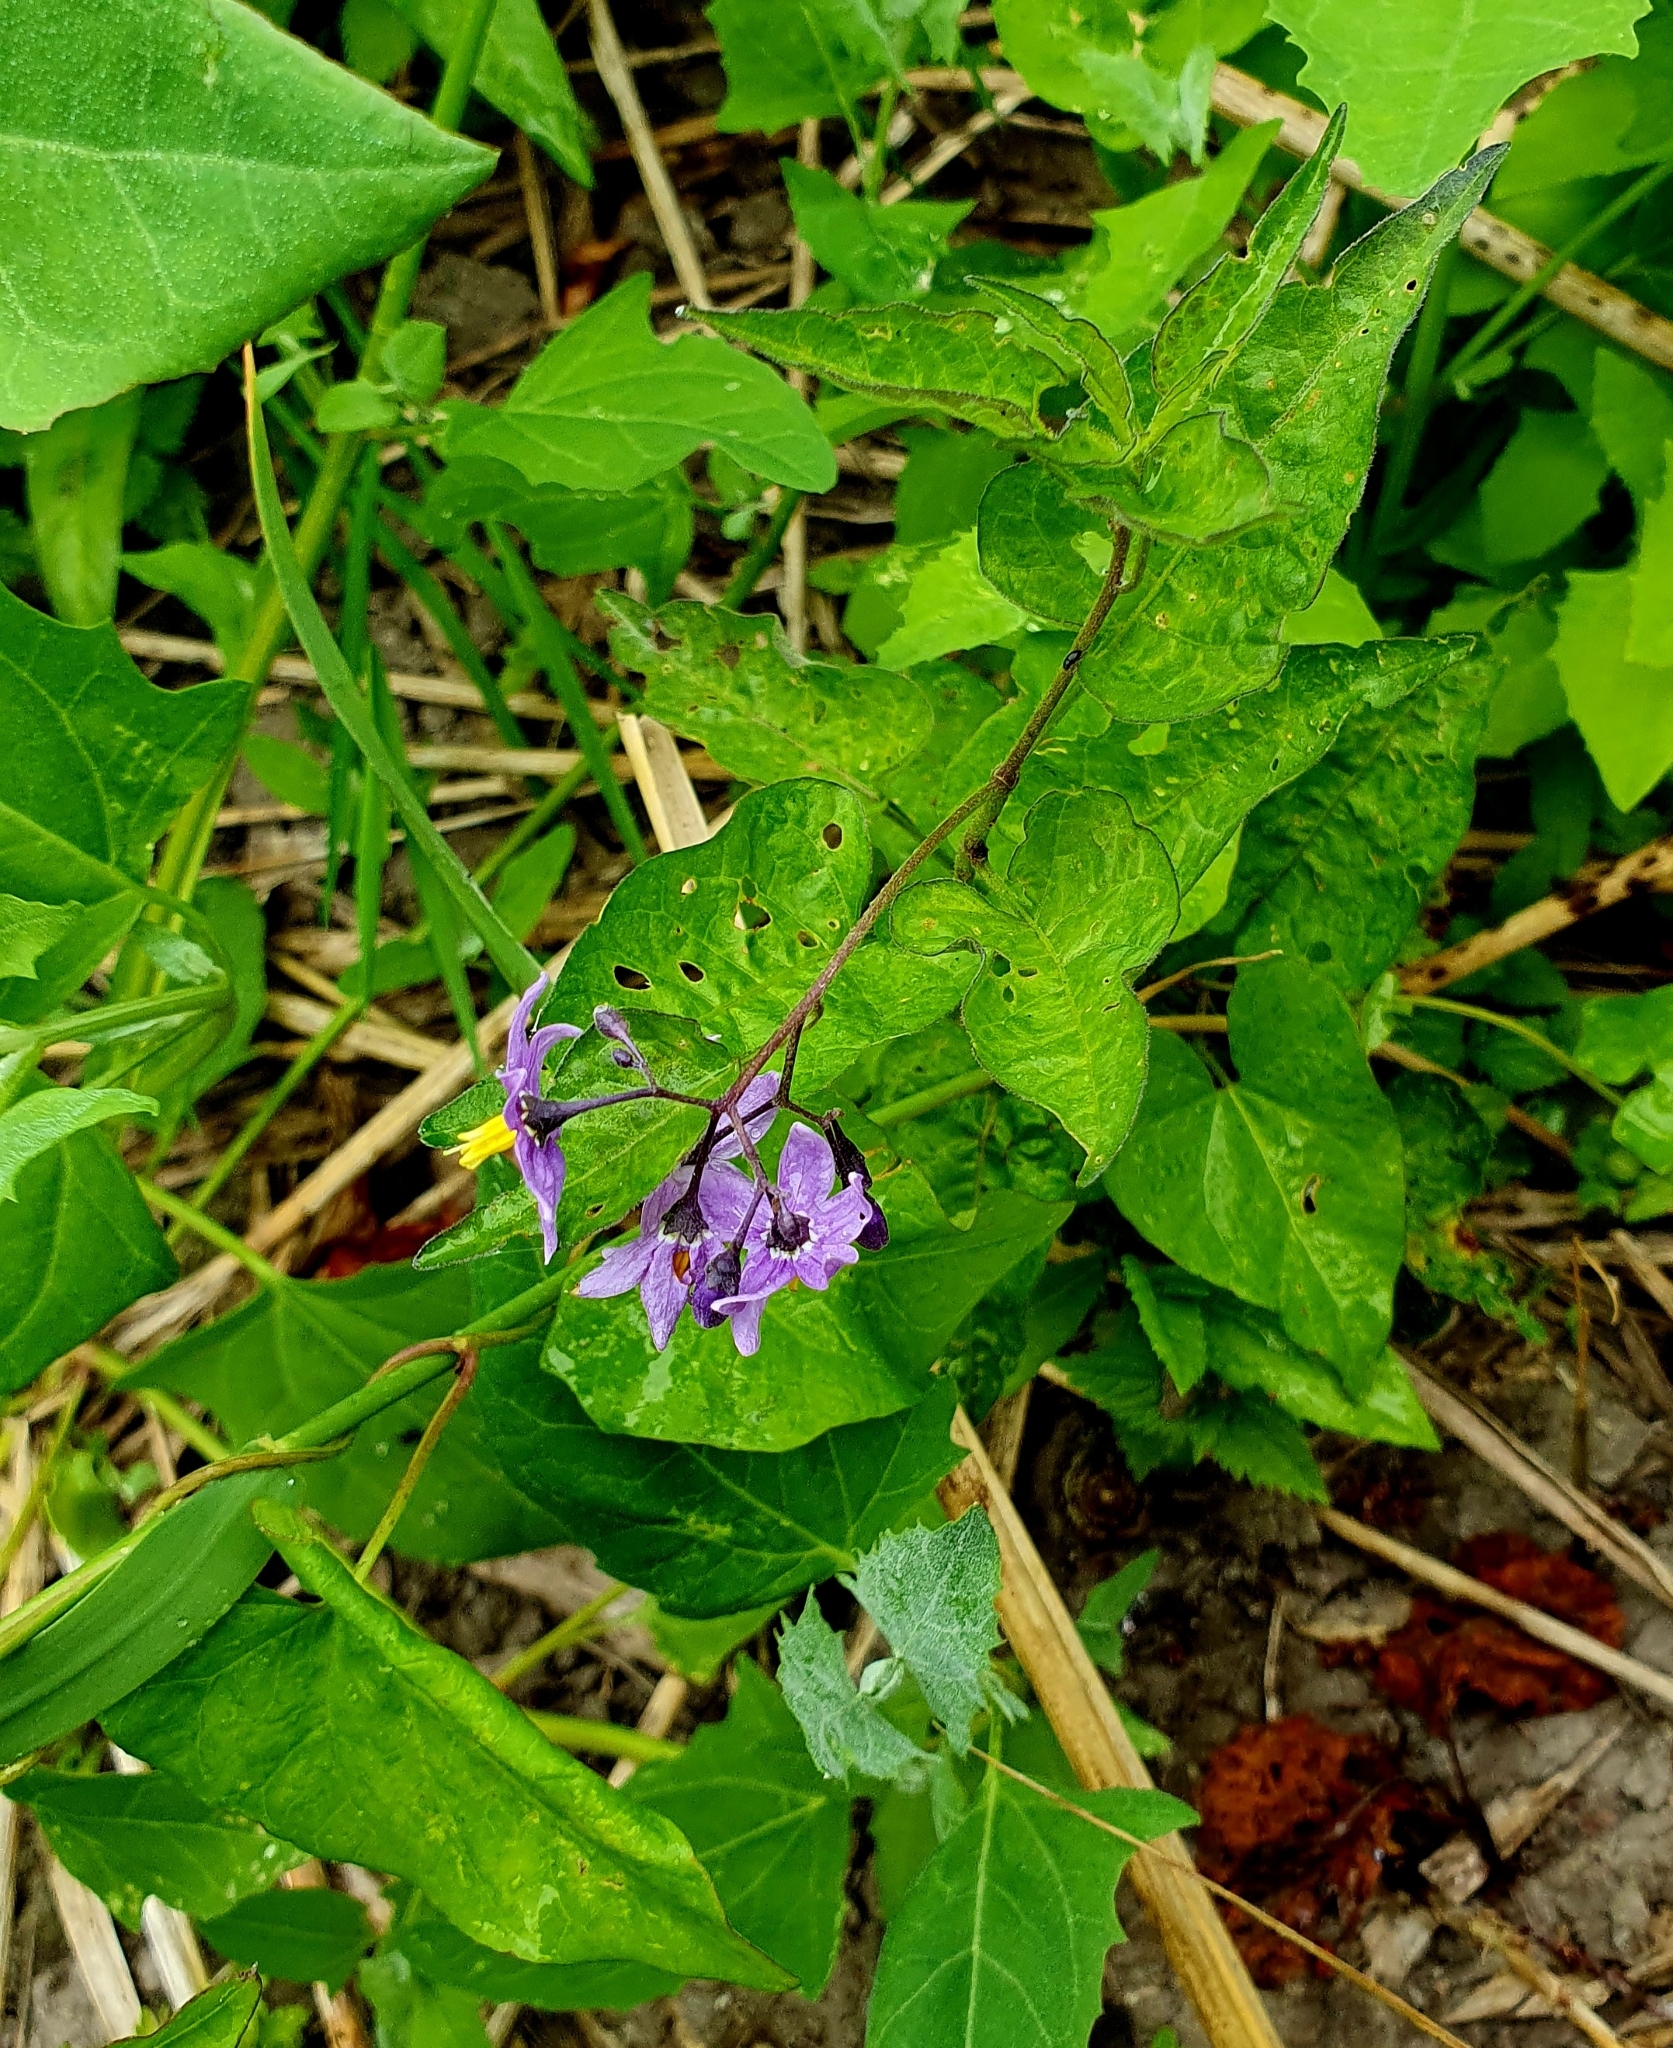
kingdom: Plantae
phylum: Tracheophyta
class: Magnoliopsida
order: Solanales
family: Solanaceae
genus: Solanum
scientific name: Solanum dulcamara
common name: Climbing nightshade
